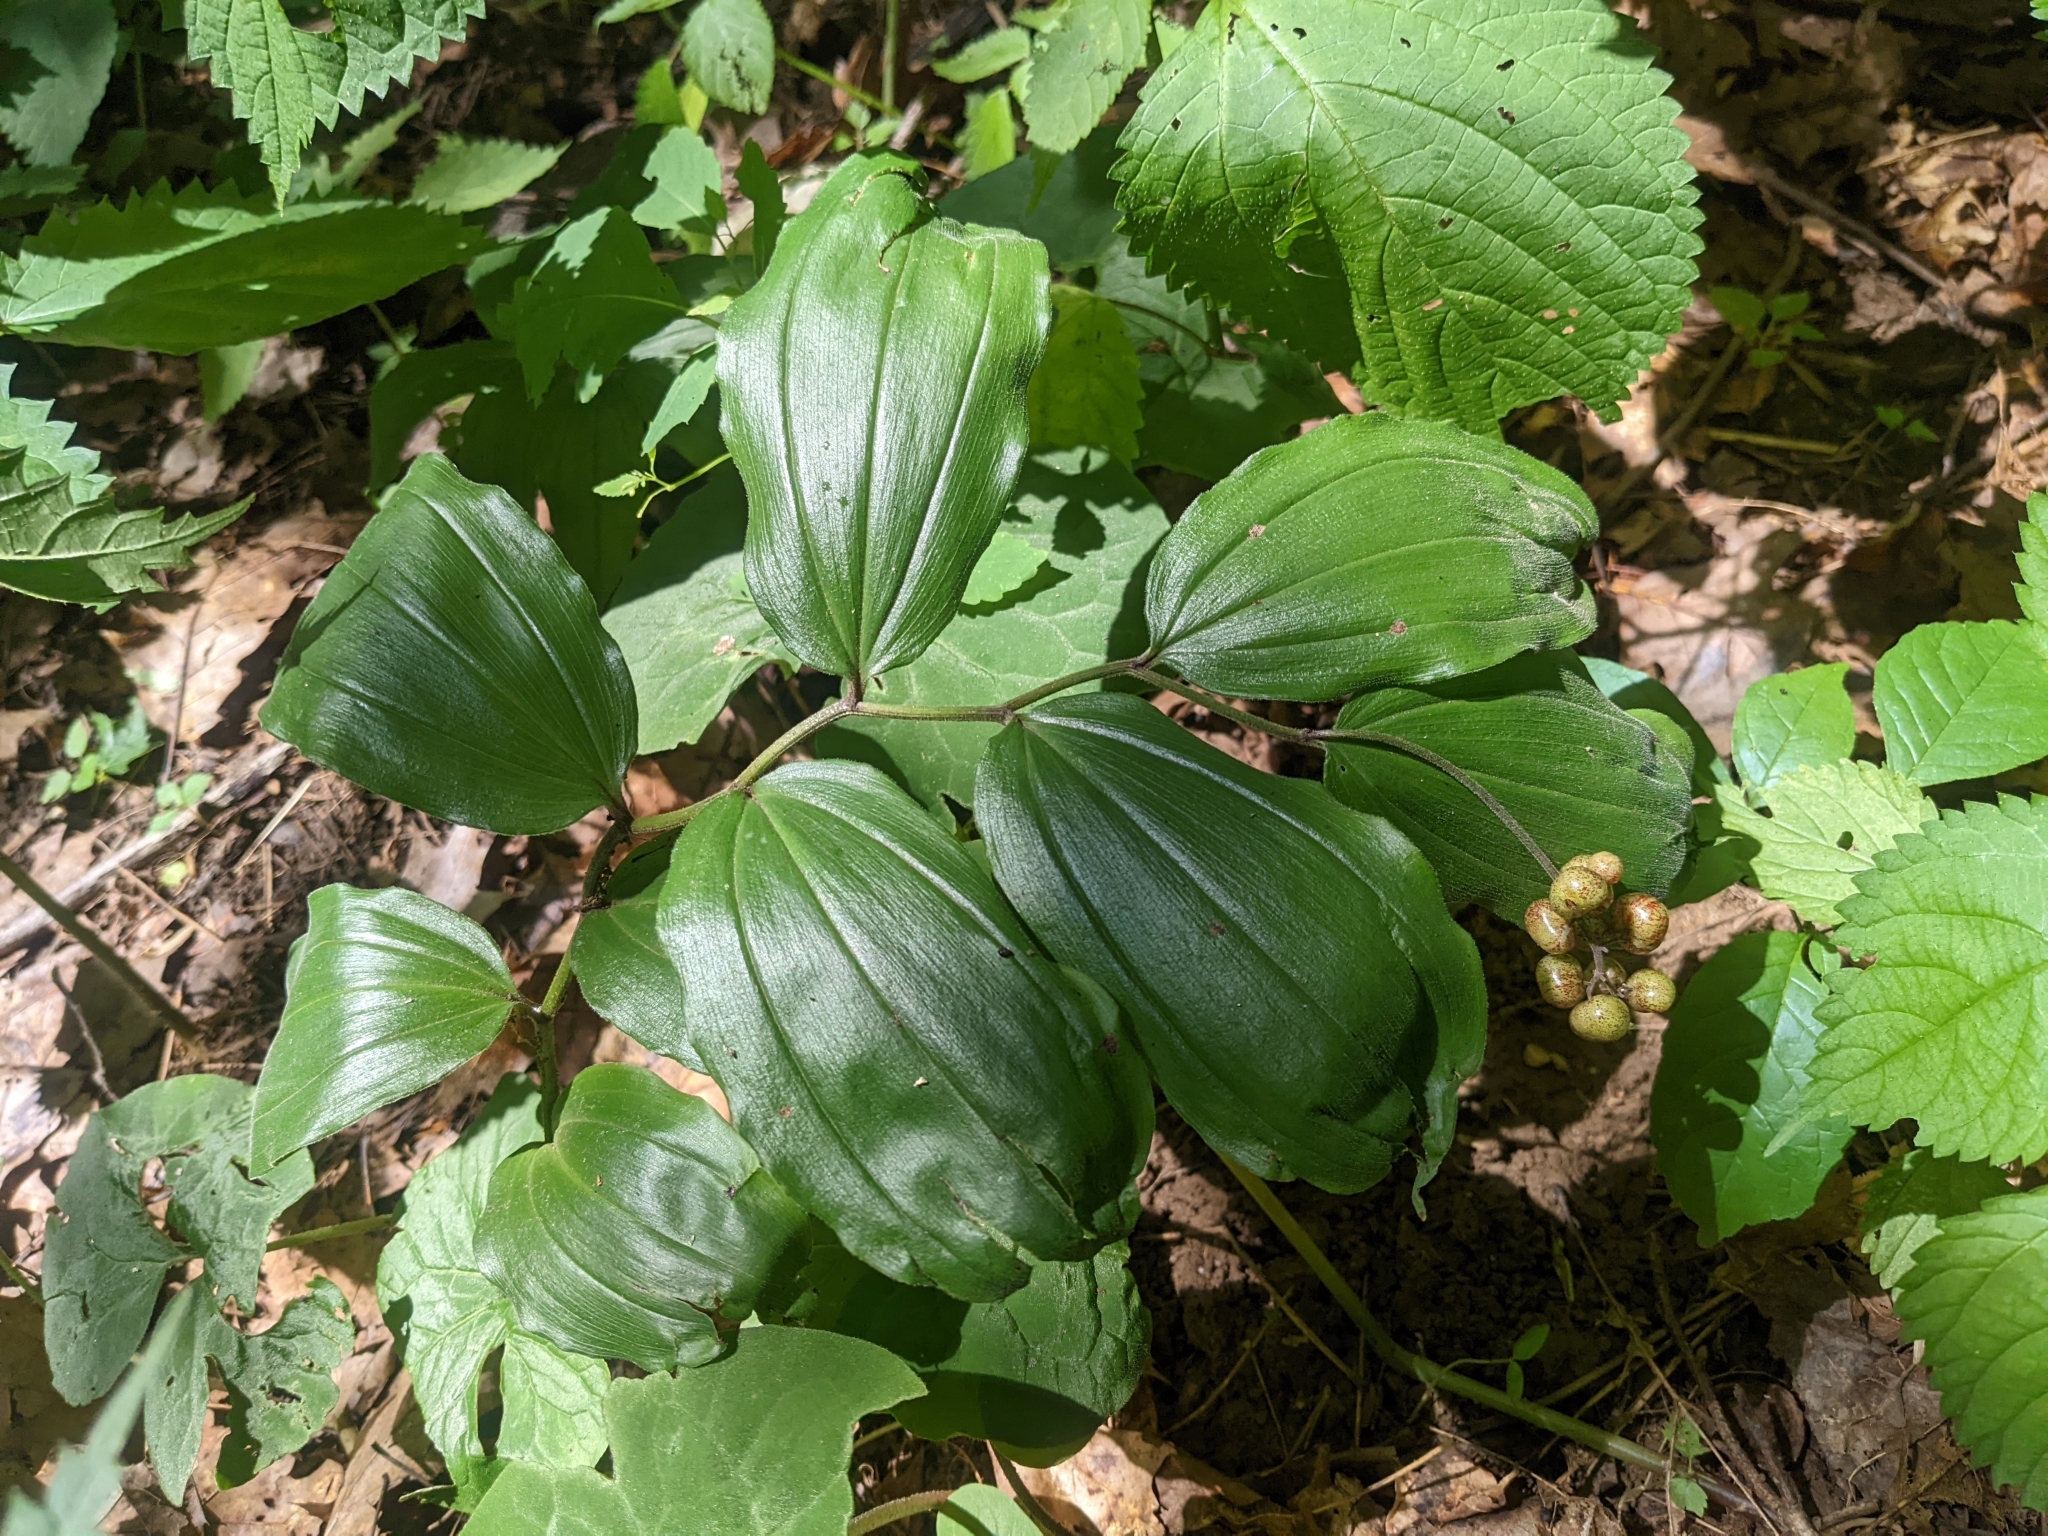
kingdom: Plantae
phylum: Tracheophyta
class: Liliopsida
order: Asparagales
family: Asparagaceae
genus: Maianthemum
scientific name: Maianthemum racemosum
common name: False spikenard
